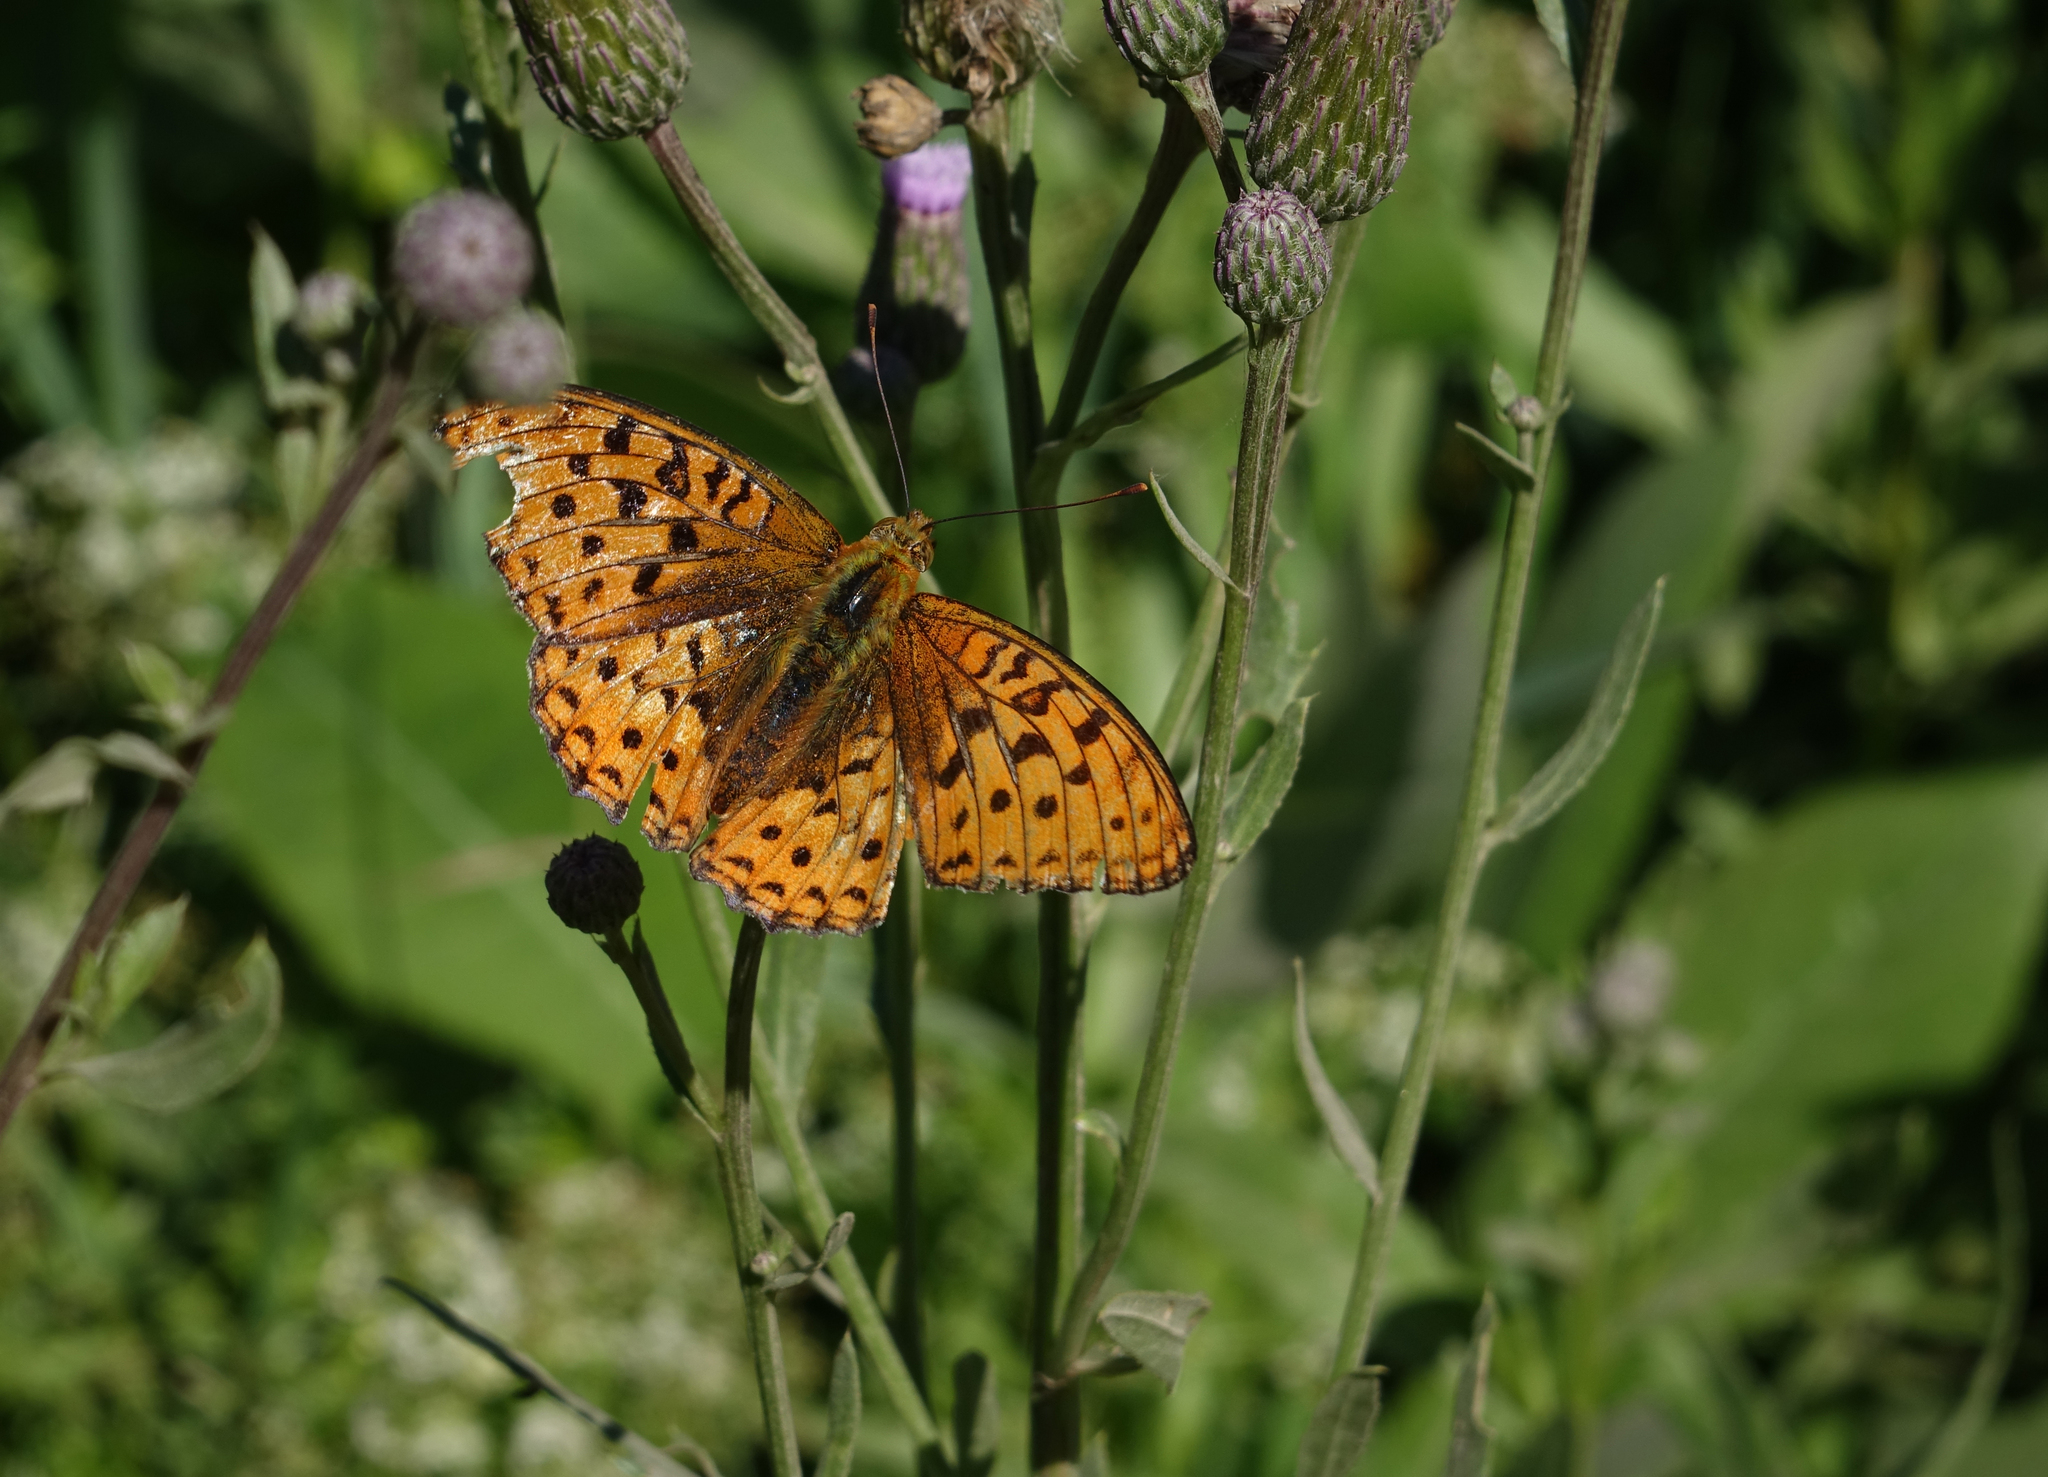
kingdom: Animalia
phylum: Arthropoda
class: Insecta
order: Lepidoptera
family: Nymphalidae
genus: Fabriciana
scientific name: Fabriciana adippe
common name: High brown fritillary
